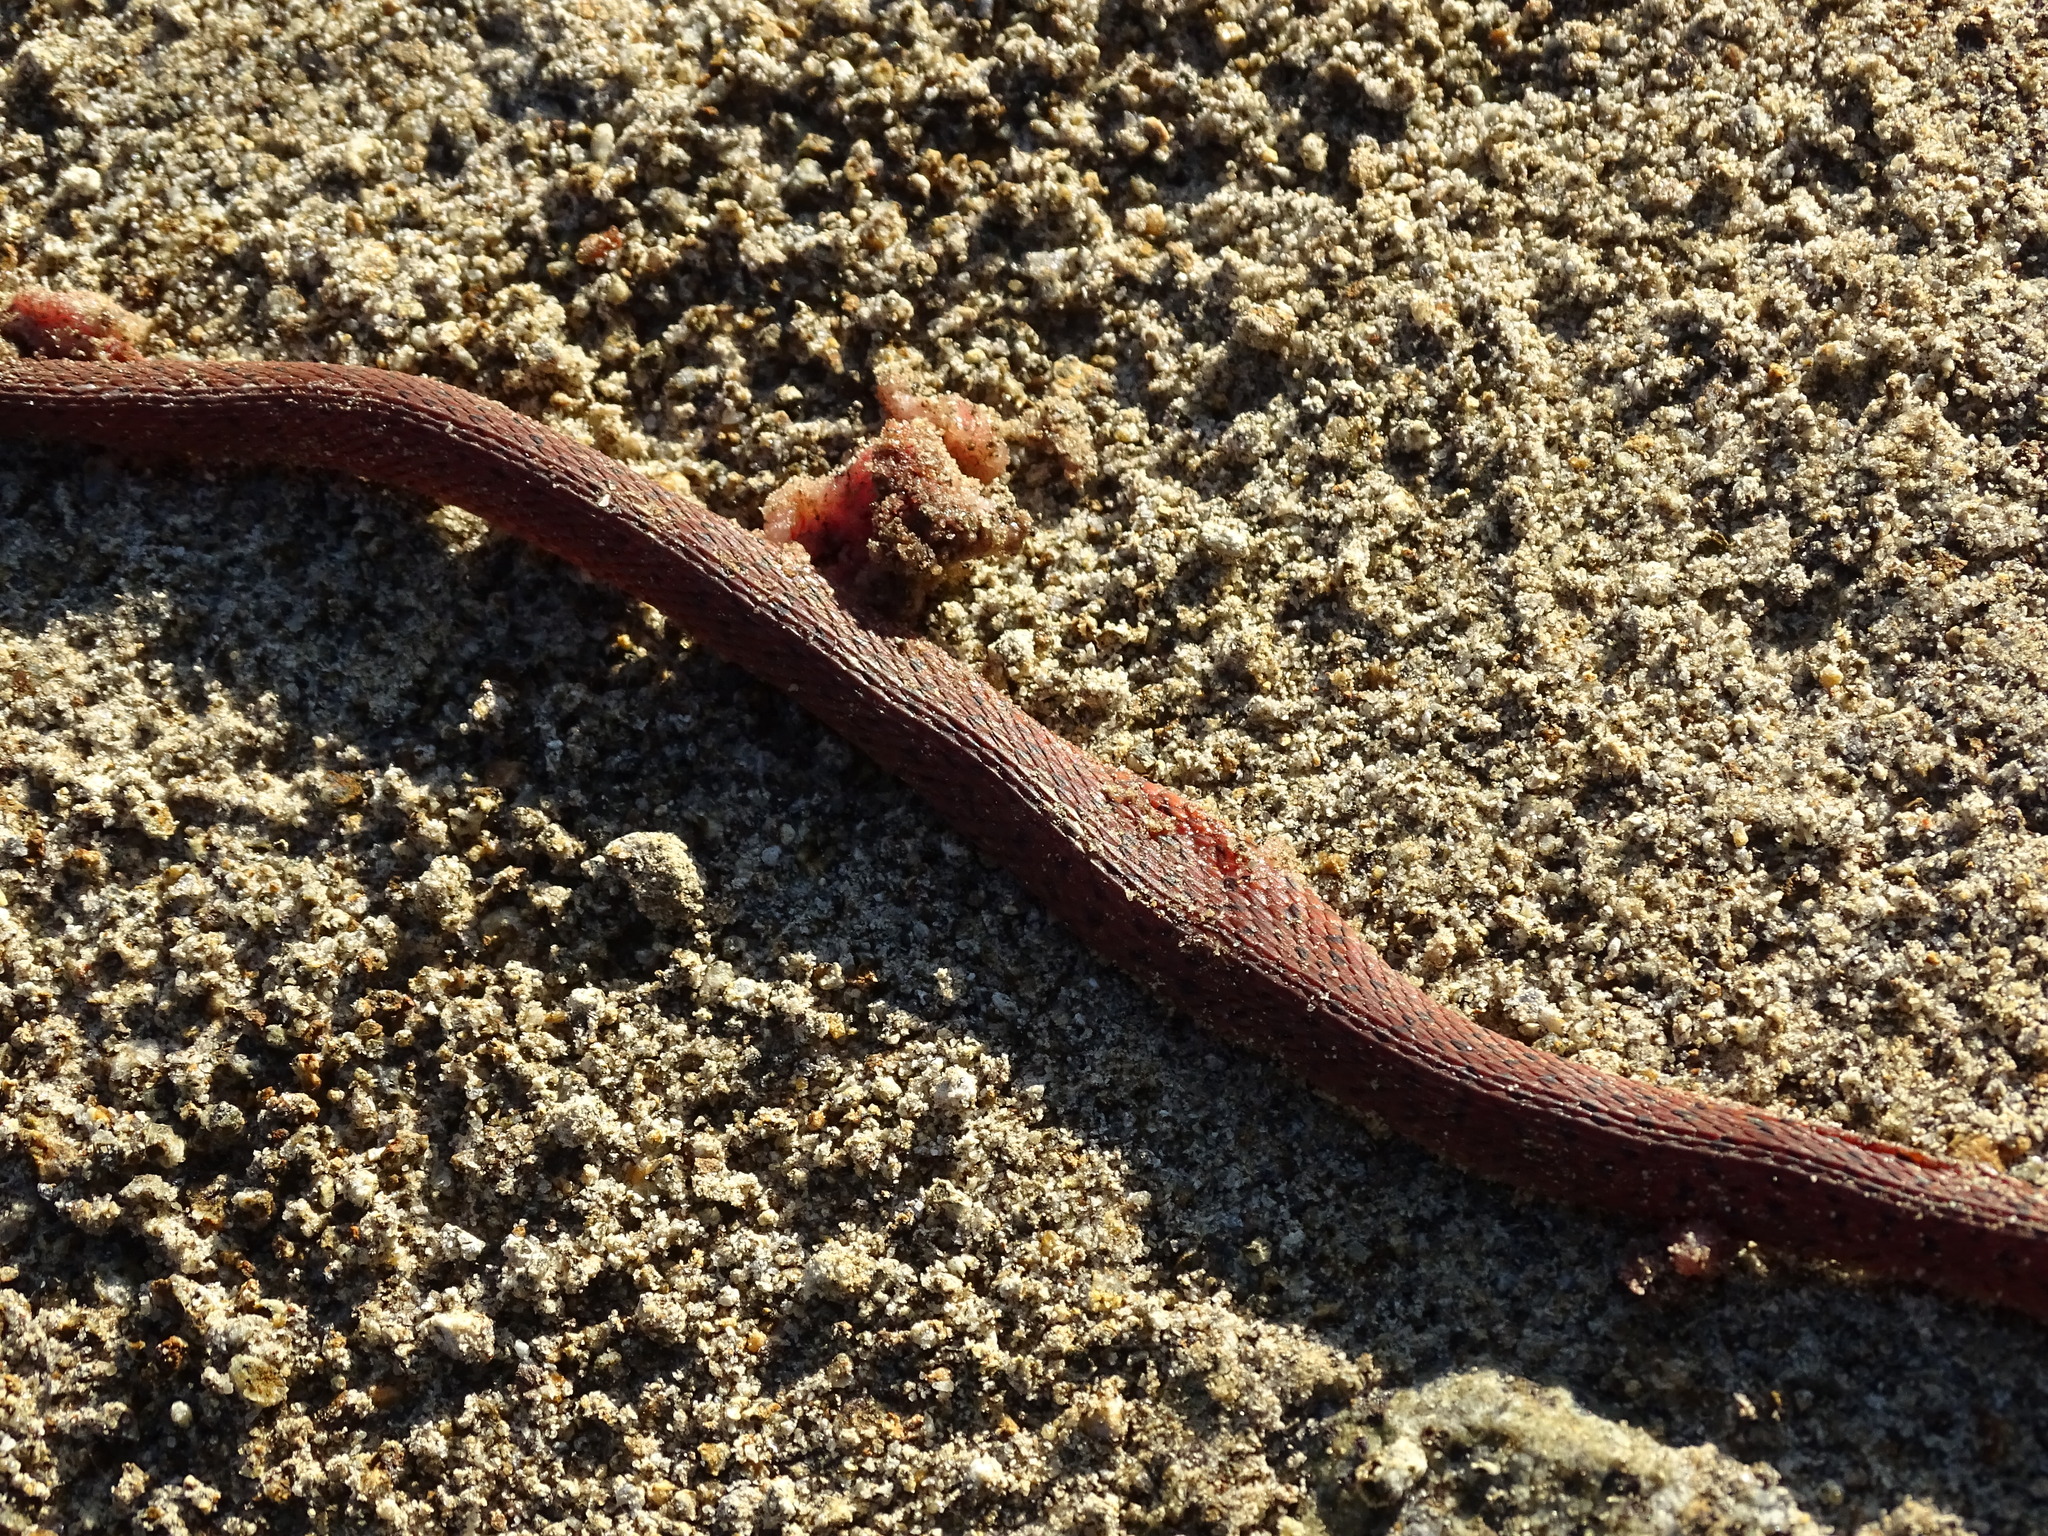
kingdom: Animalia
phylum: Chordata
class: Squamata
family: Colubridae
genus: Ninia
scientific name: Ninia sebae
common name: Redback coffee snake
